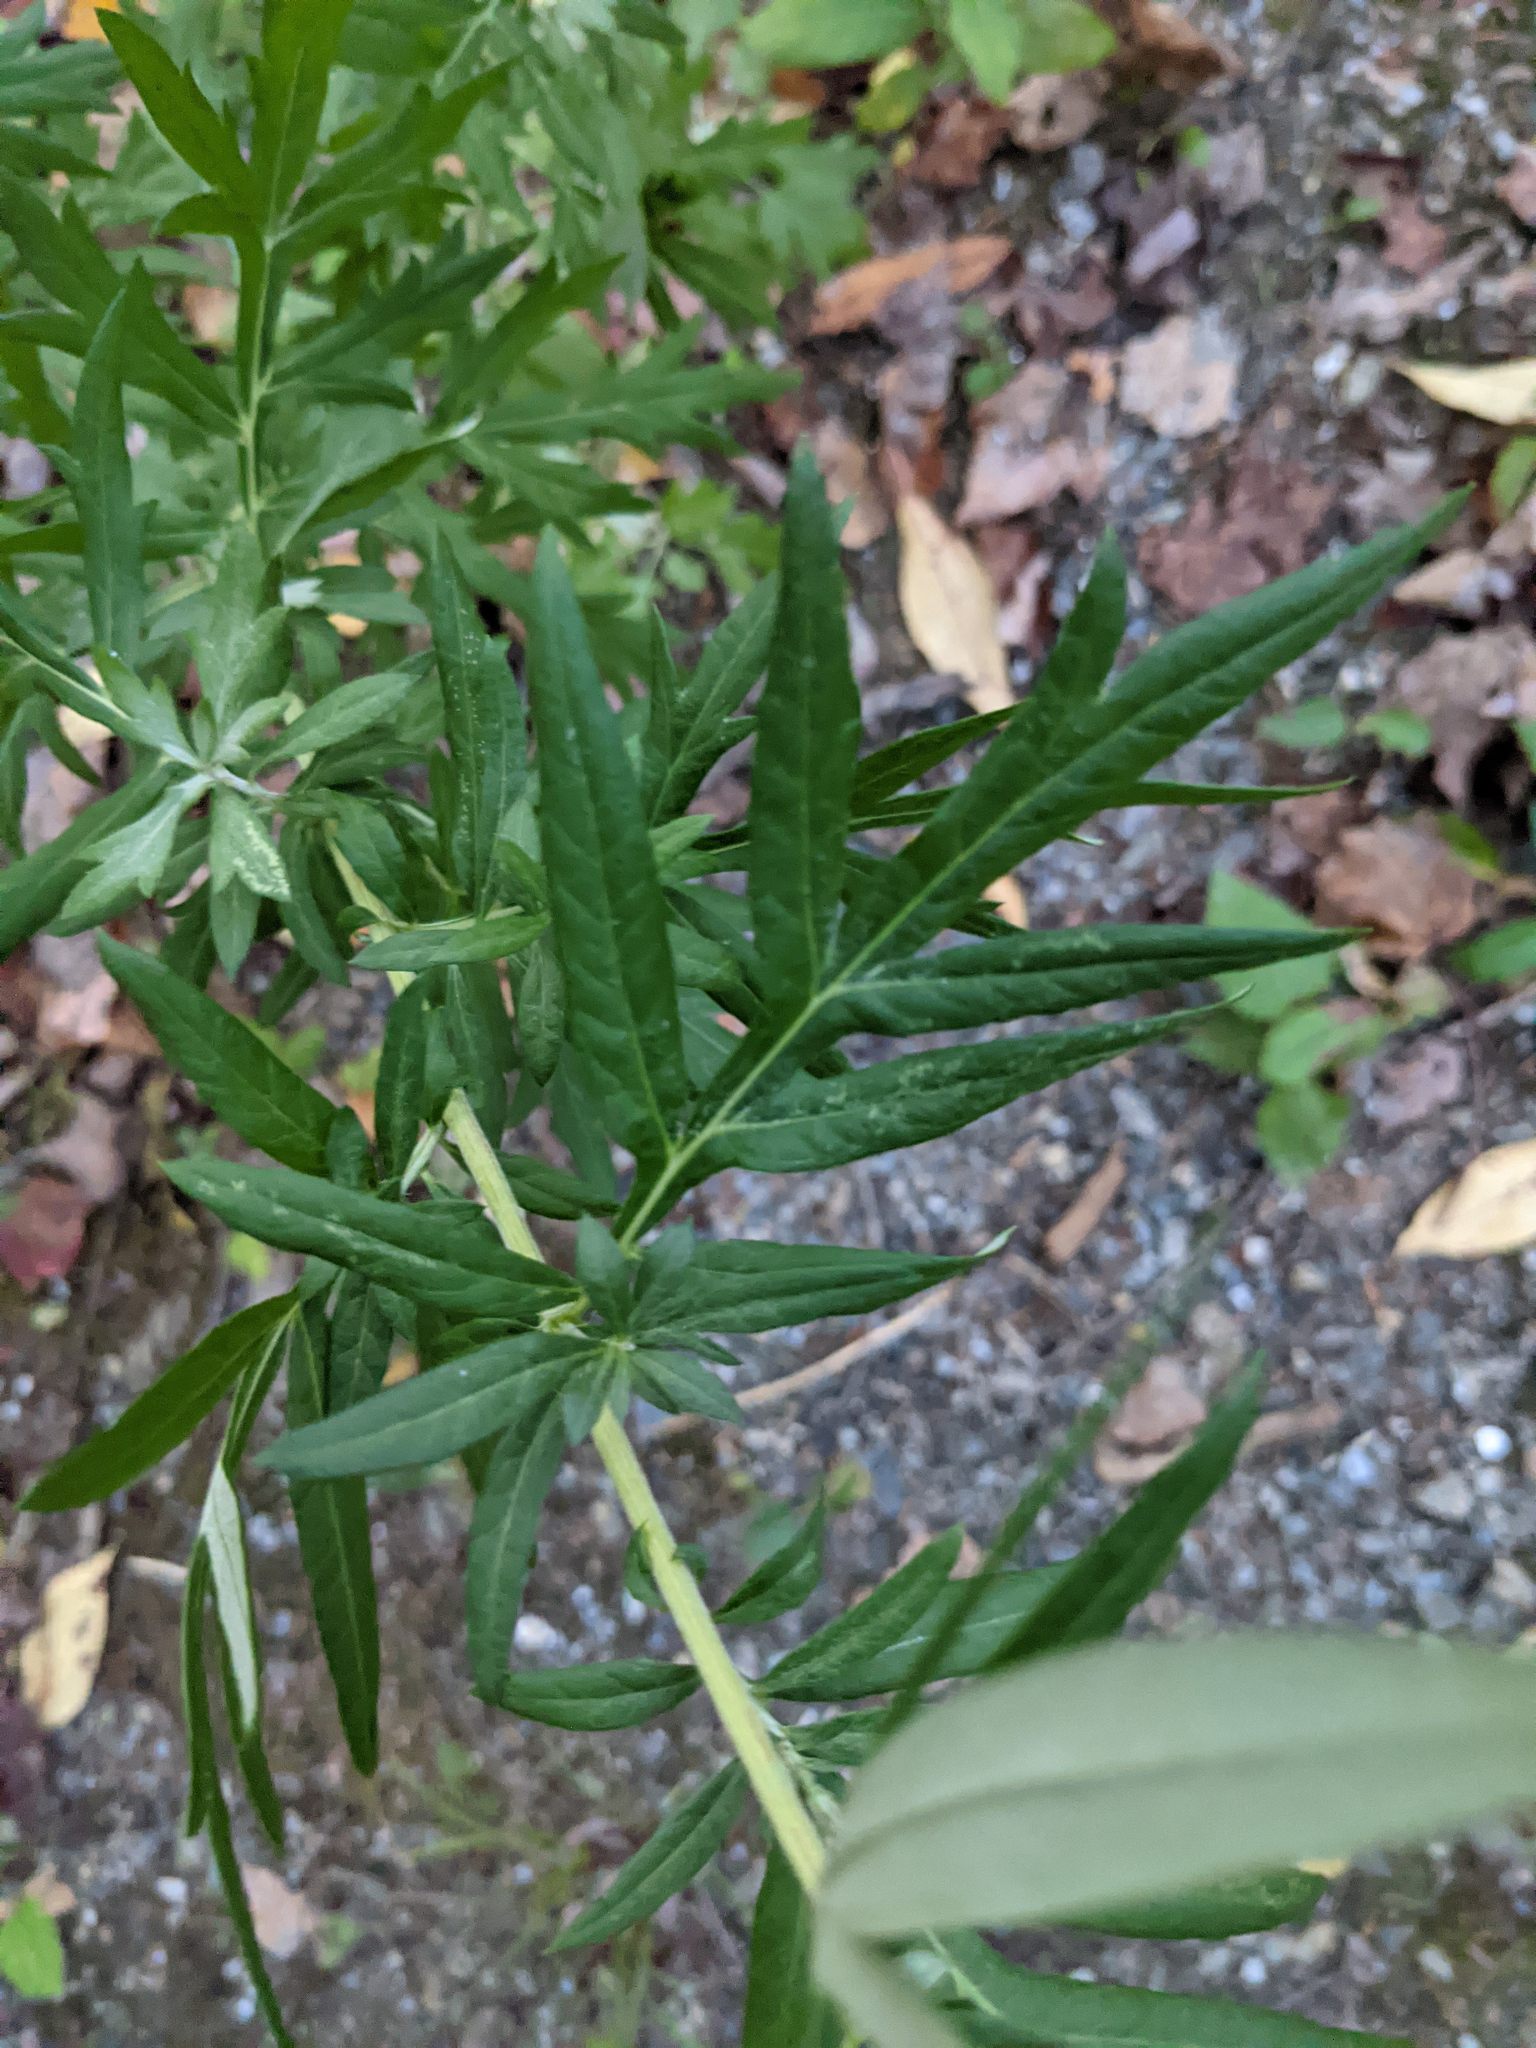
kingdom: Plantae
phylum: Tracheophyta
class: Magnoliopsida
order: Asterales
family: Asteraceae
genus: Artemisia
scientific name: Artemisia vulgaris
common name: Mugwort
